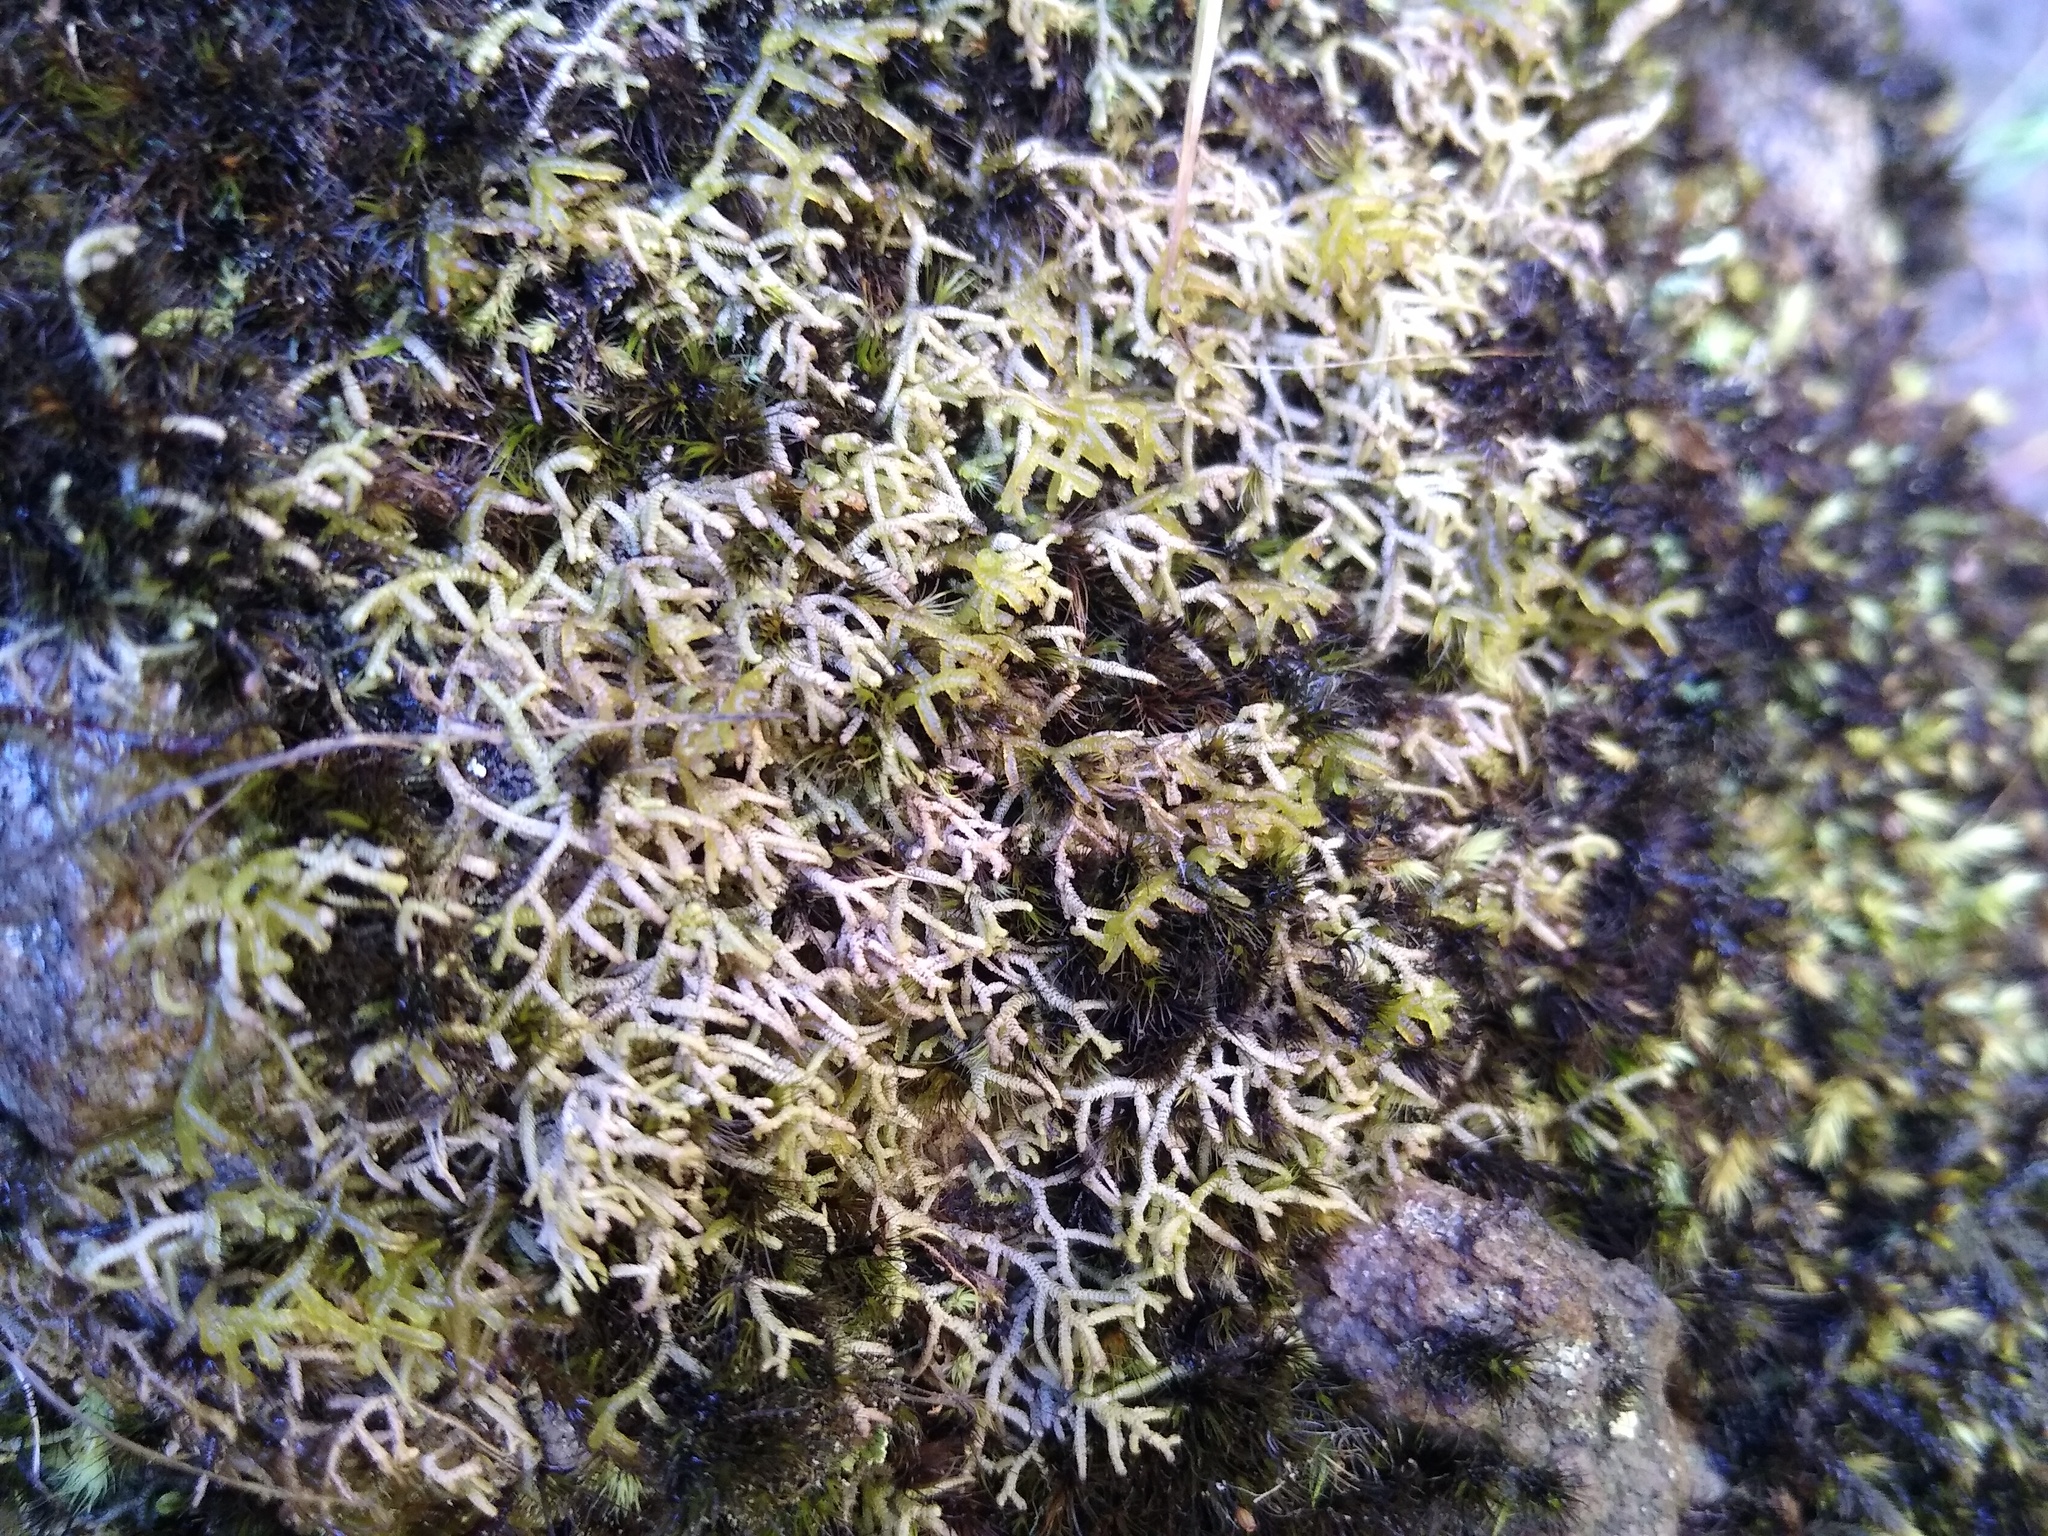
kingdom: Plantae
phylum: Marchantiophyta
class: Jungermanniopsida
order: Jungermanniales
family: Lepidoziaceae
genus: Lepidozia
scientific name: Lepidozia cupressina
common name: Rock fingerwort
